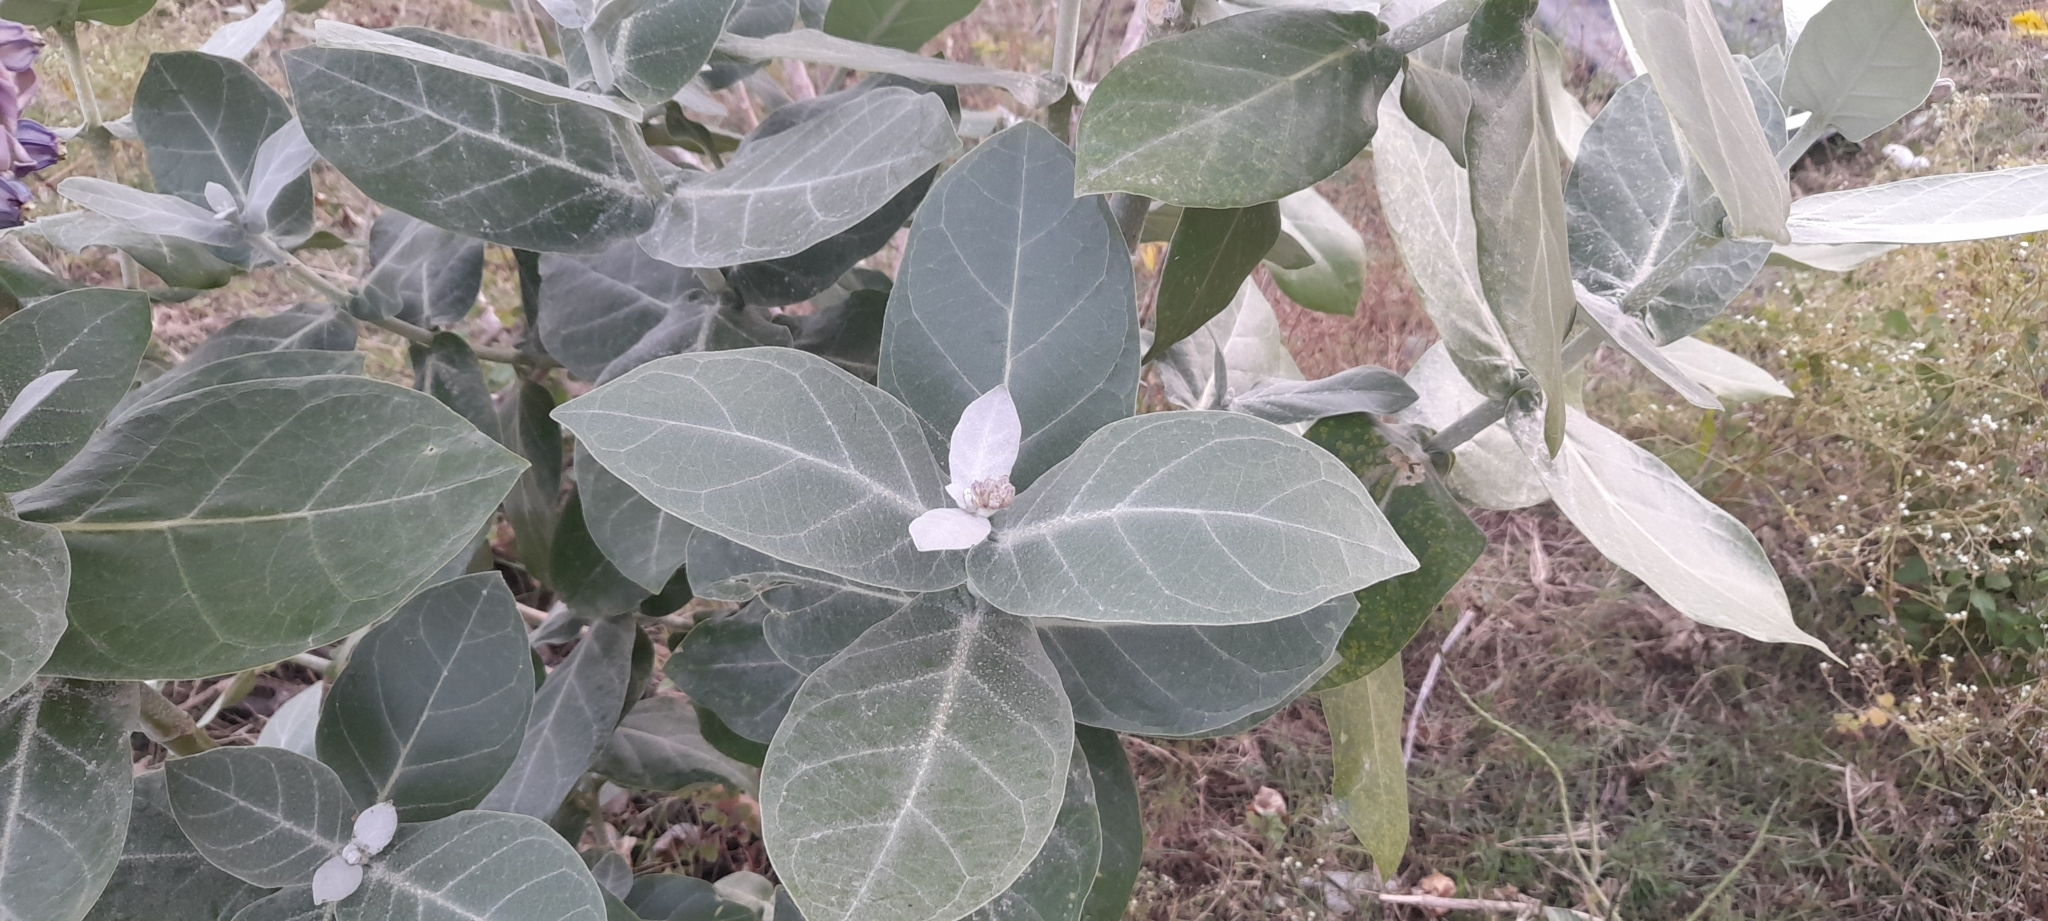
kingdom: Plantae
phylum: Tracheophyta
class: Magnoliopsida
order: Gentianales
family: Apocynaceae
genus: Calotropis
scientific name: Calotropis gigantea
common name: Crown flower
